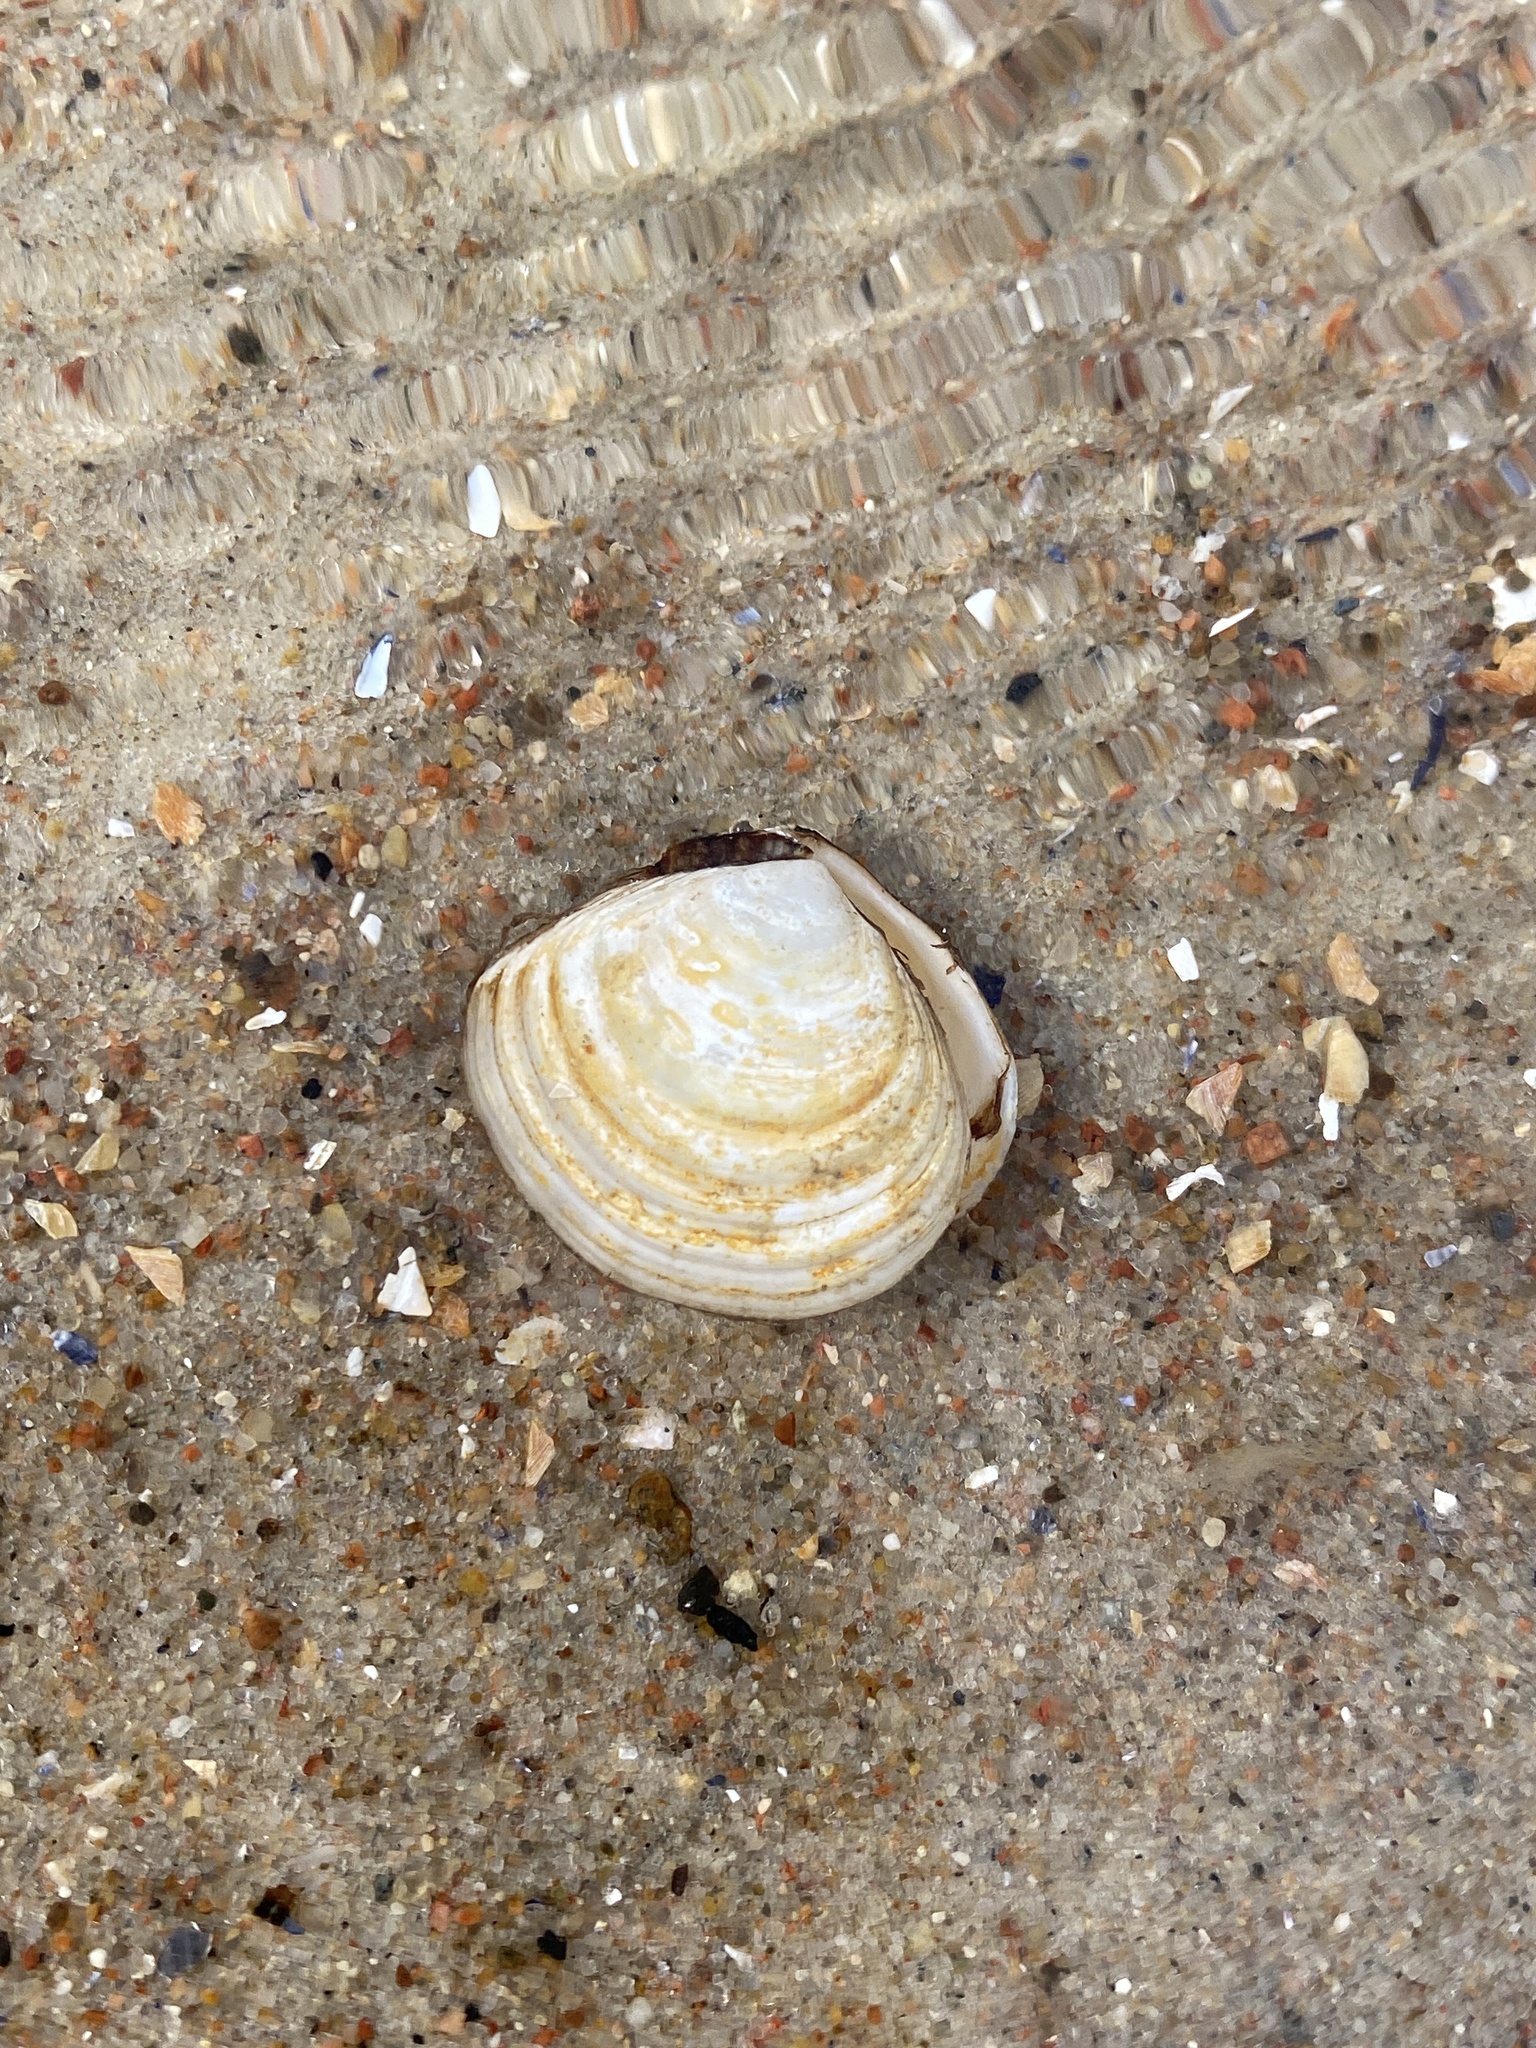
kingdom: Animalia
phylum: Mollusca
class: Bivalvia
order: Cardiida
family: Tellinidae
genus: Macoma
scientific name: Macoma balthica
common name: Baltic tellin
